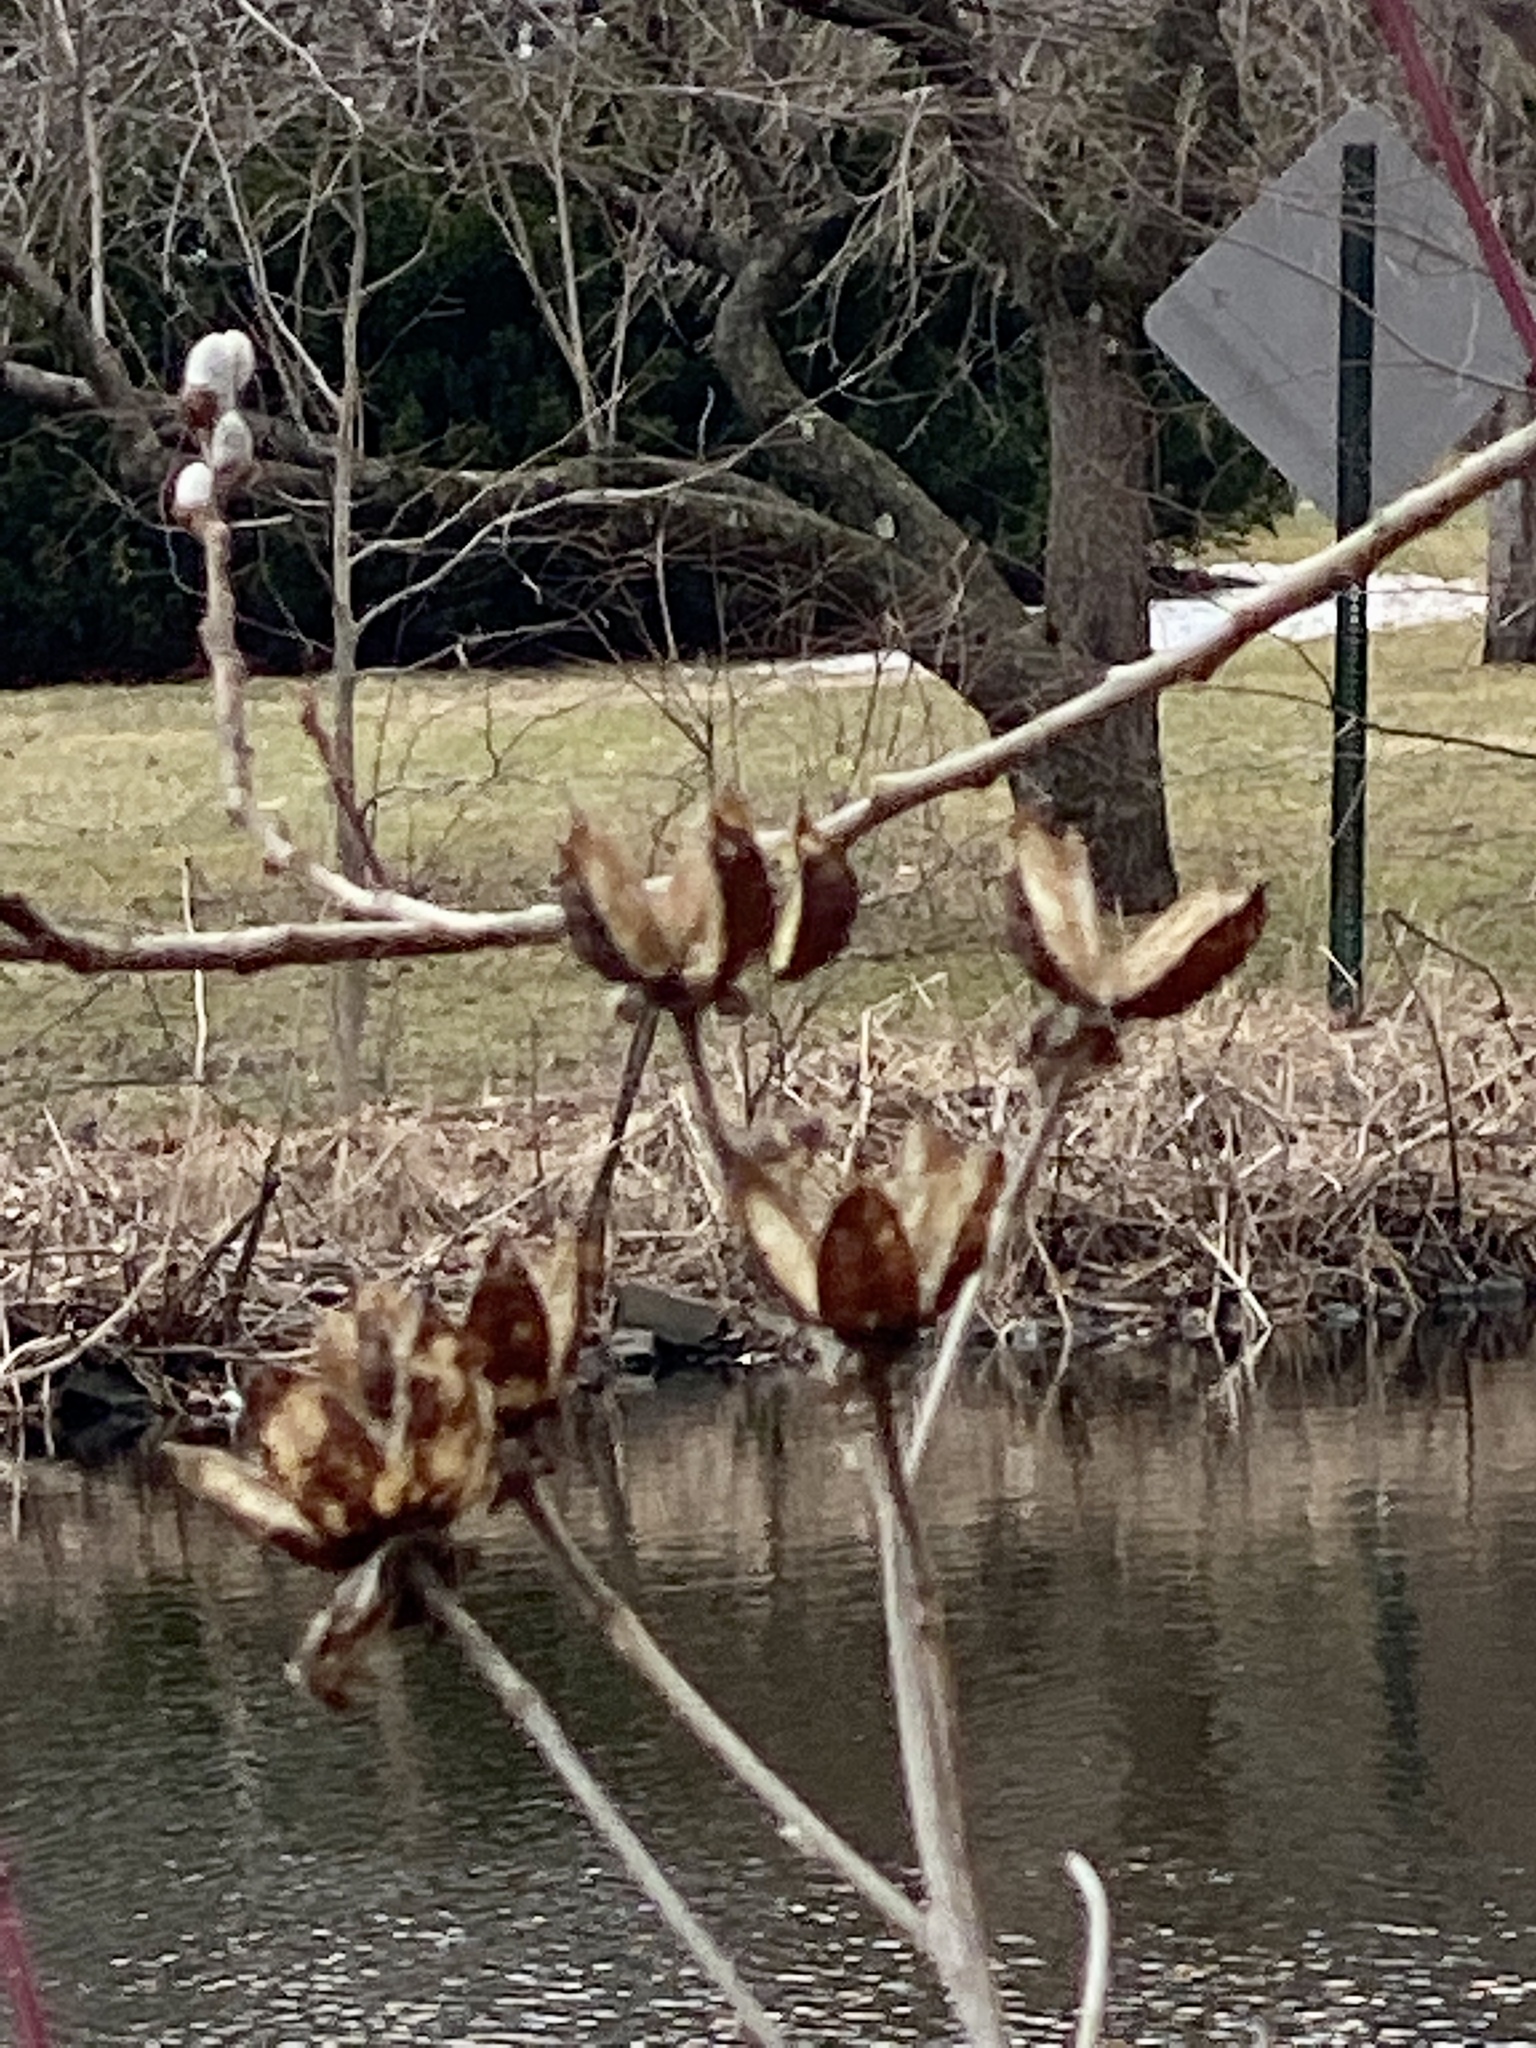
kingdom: Plantae
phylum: Tracheophyta
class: Magnoliopsida
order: Malvales
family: Malvaceae
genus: Hibiscus
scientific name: Hibiscus moscheutos
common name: Common rose-mallow
